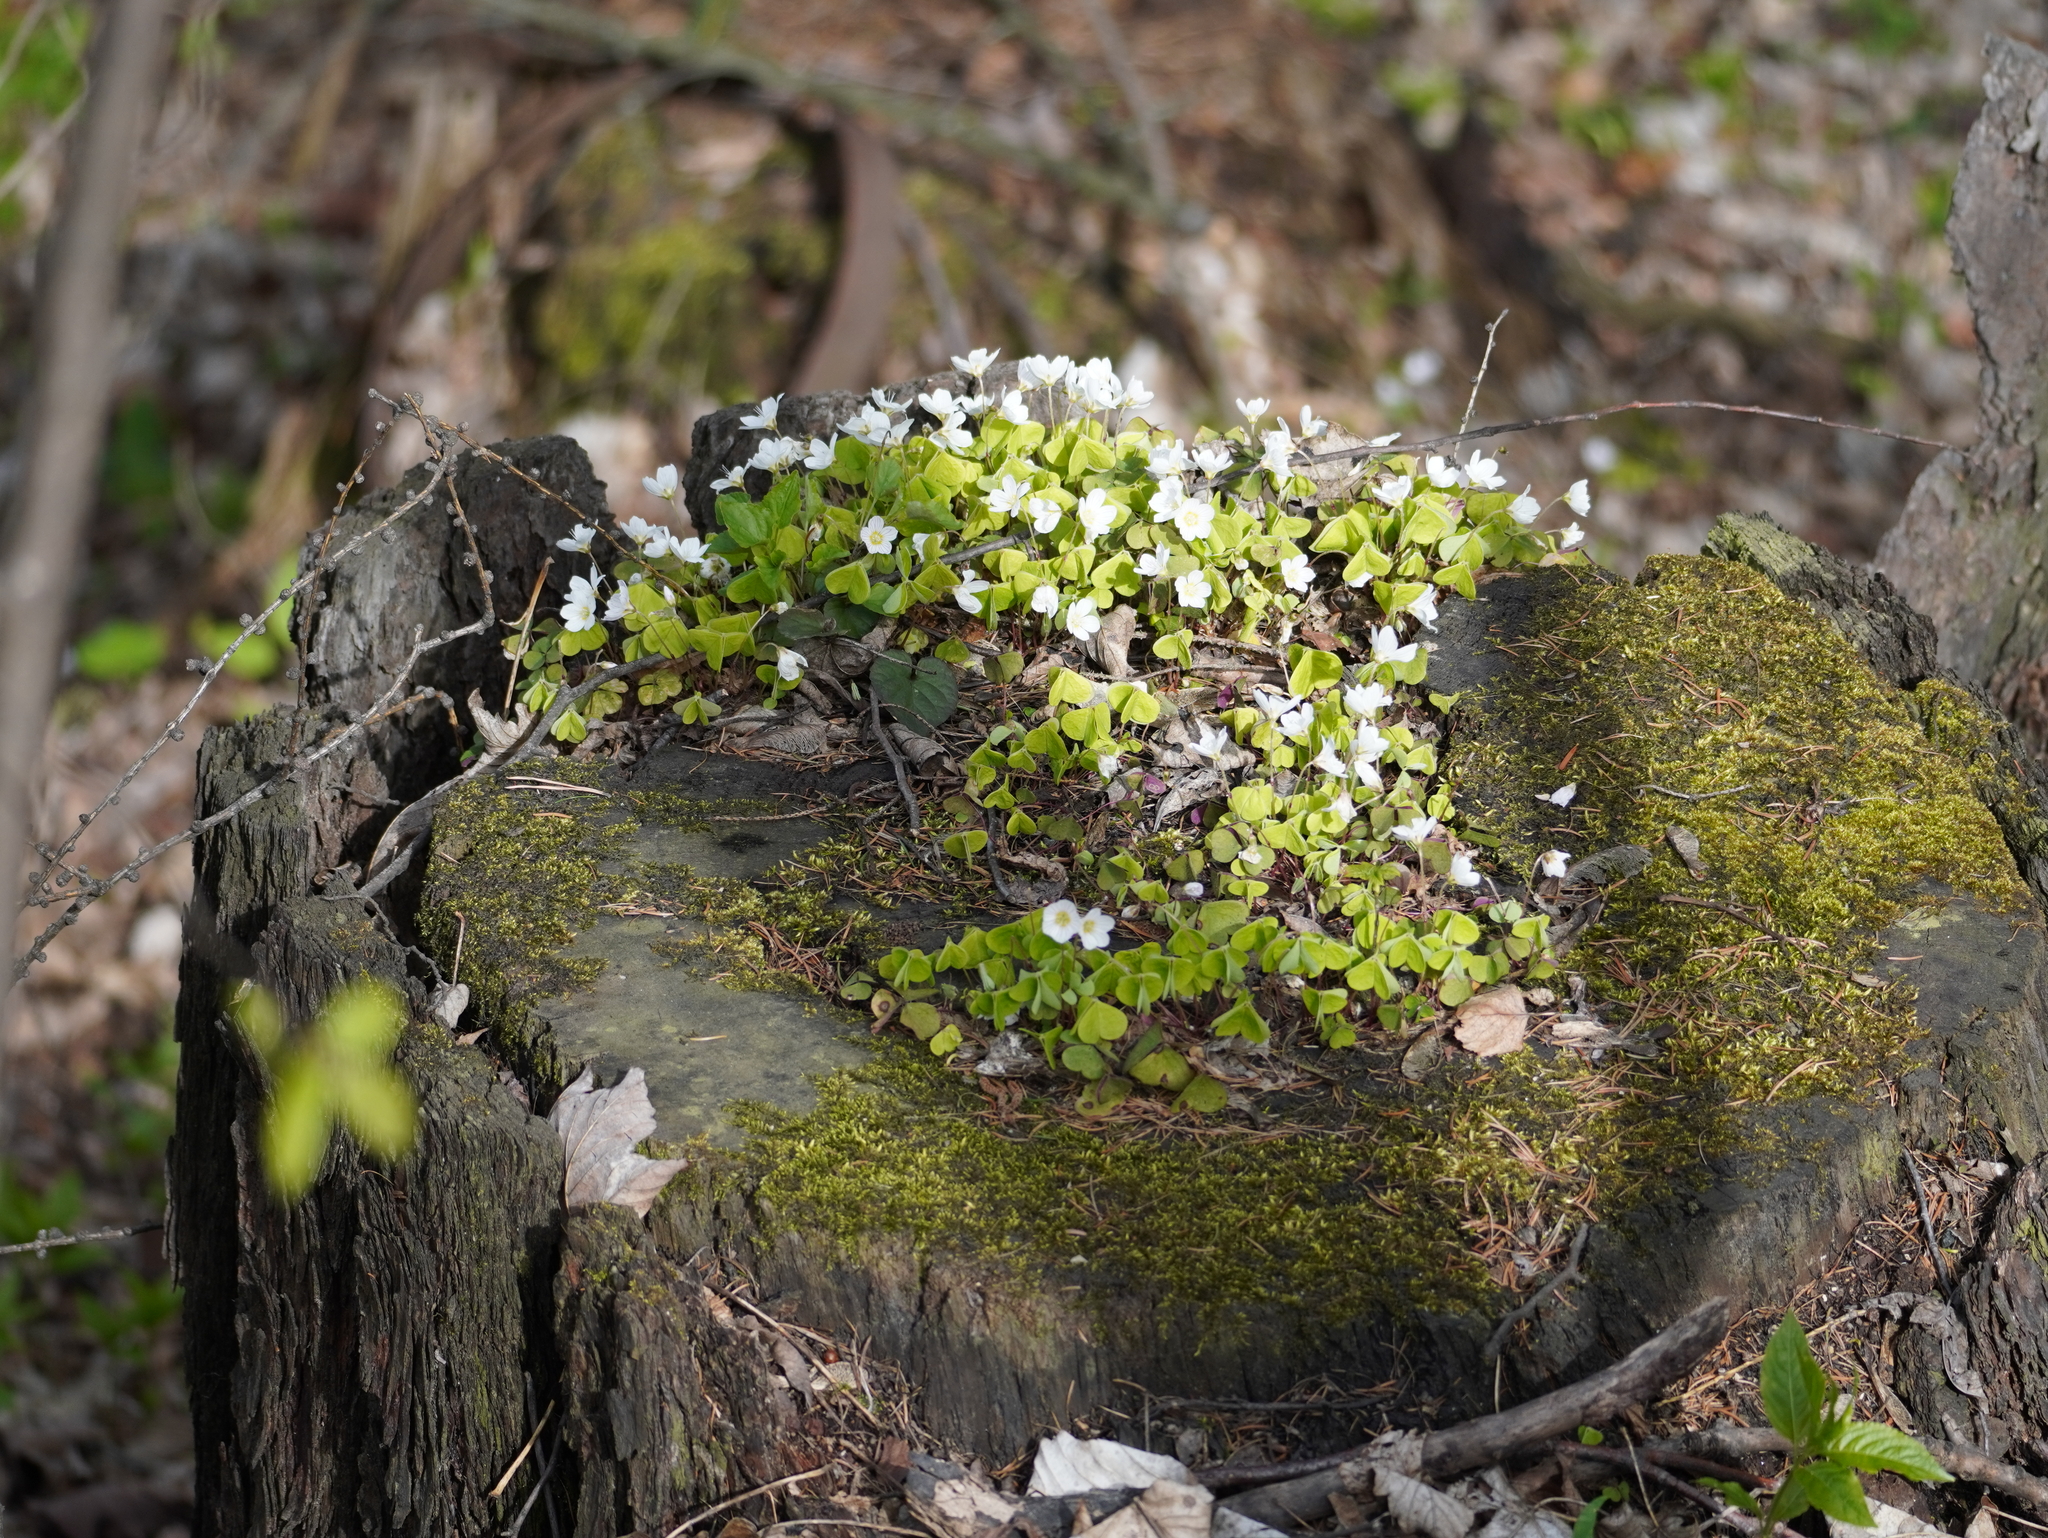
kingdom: Plantae
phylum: Tracheophyta
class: Magnoliopsida
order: Oxalidales
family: Oxalidaceae
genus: Oxalis
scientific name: Oxalis acetosella
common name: Wood-sorrel
